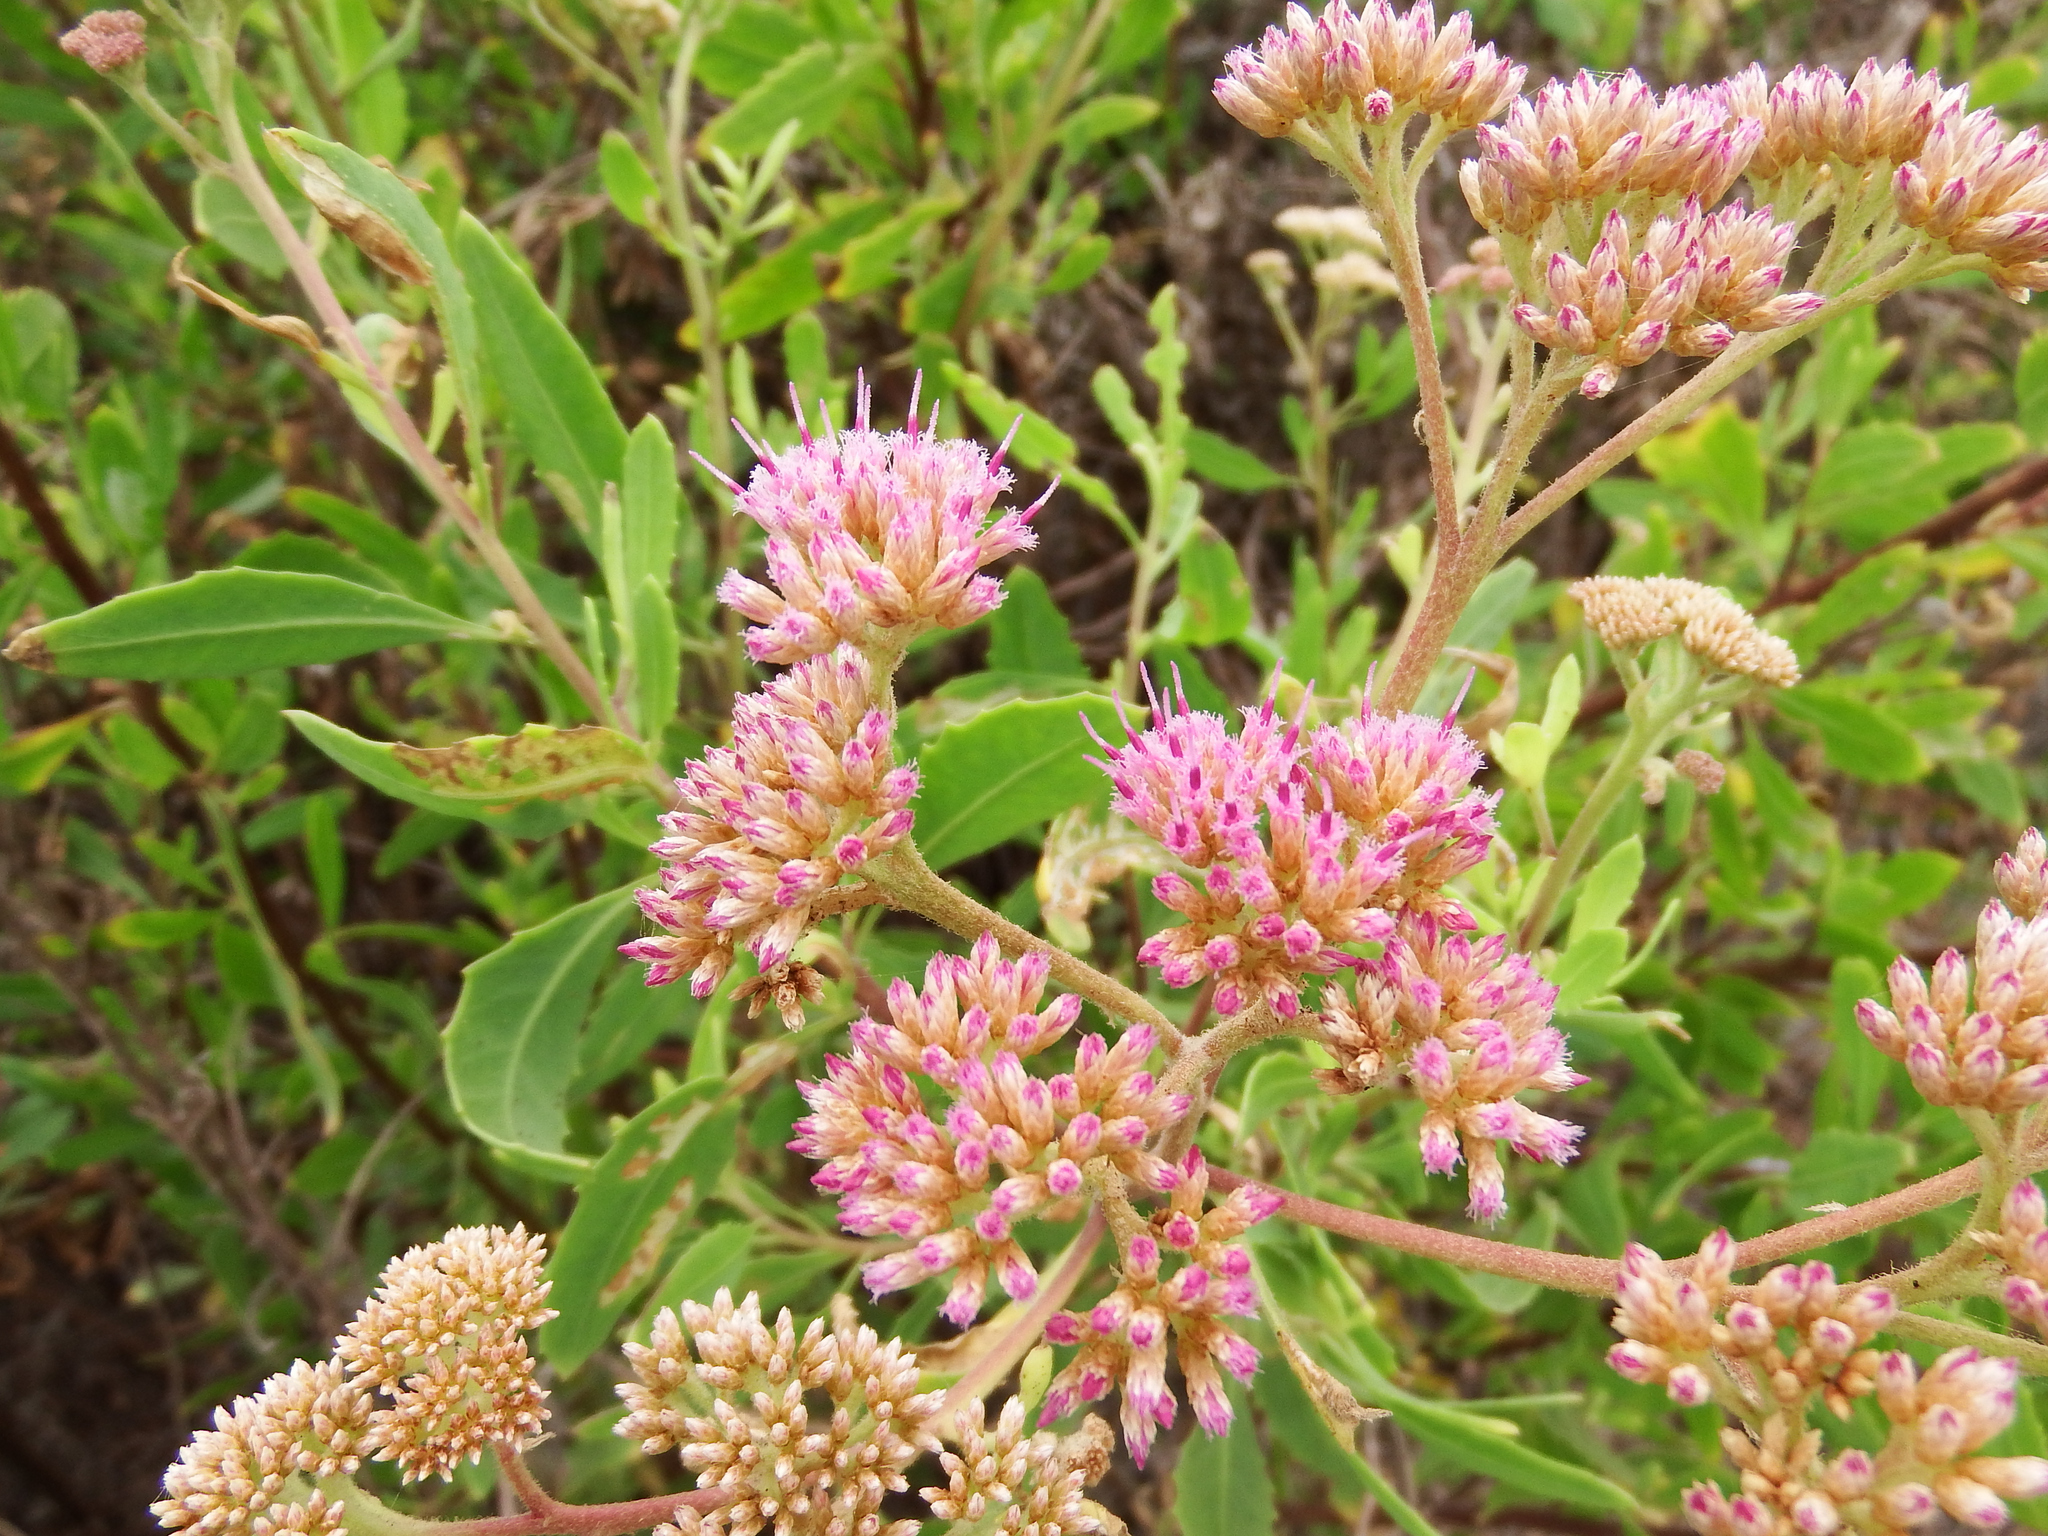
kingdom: Plantae
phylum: Tracheophyta
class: Magnoliopsida
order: Asterales
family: Asteraceae
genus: Tessaria
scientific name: Tessaria integrifolia
